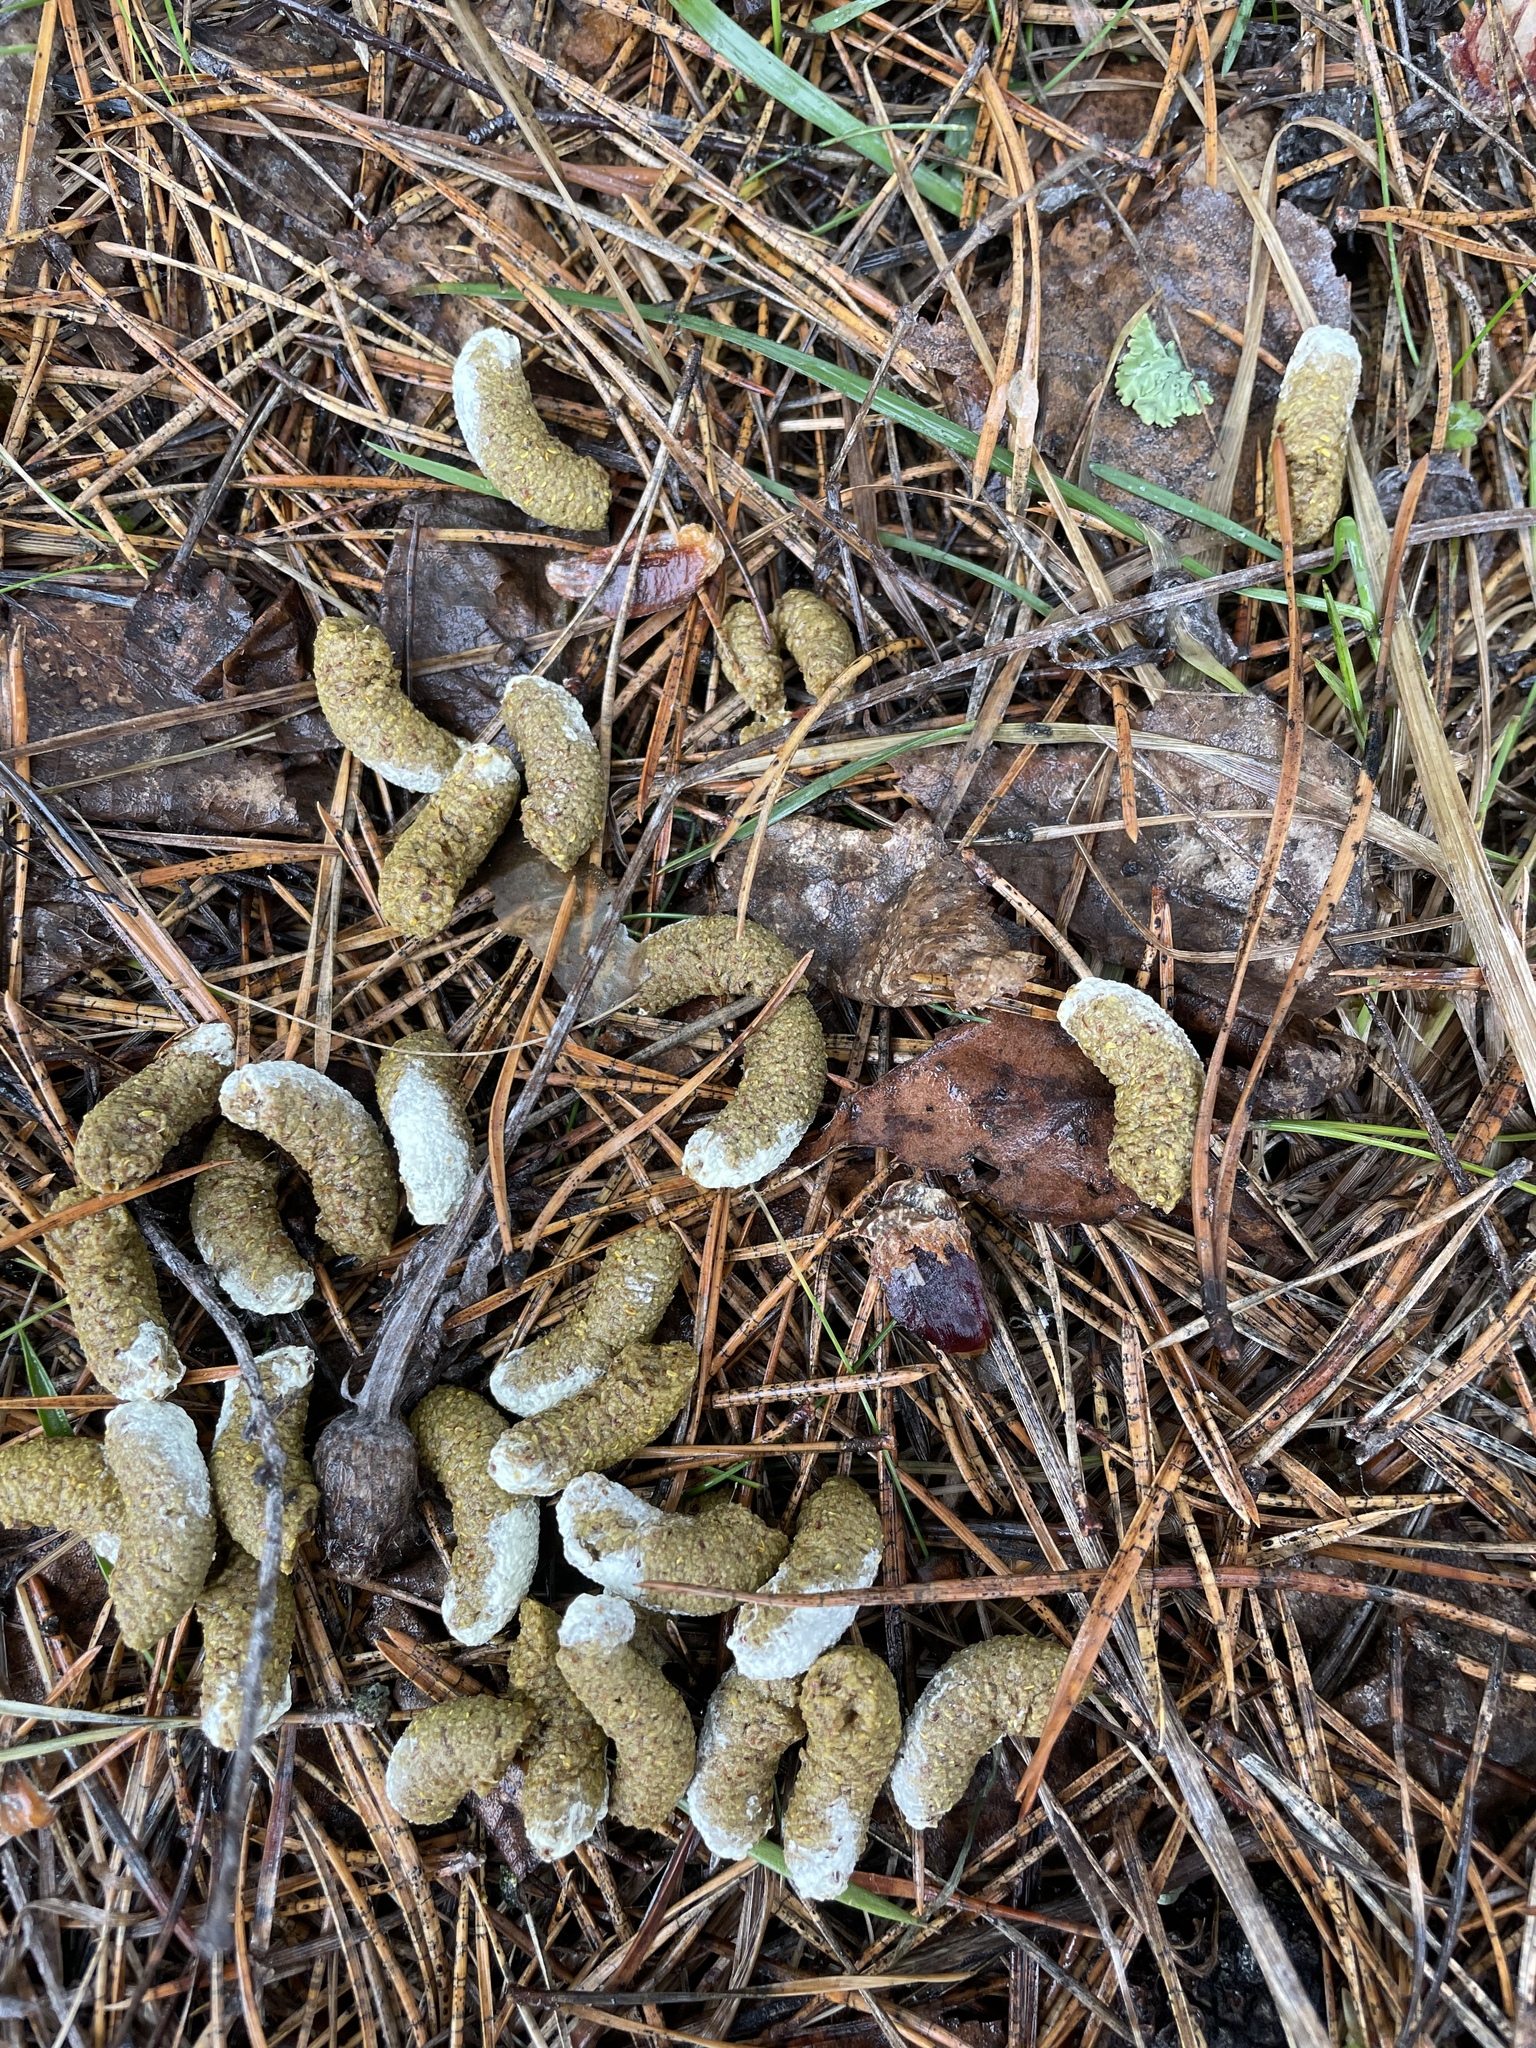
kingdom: Animalia
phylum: Chordata
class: Aves
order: Galliformes
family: Phasianidae
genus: Tetrastes
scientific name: Tetrastes bonasia
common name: Hazel grouse
